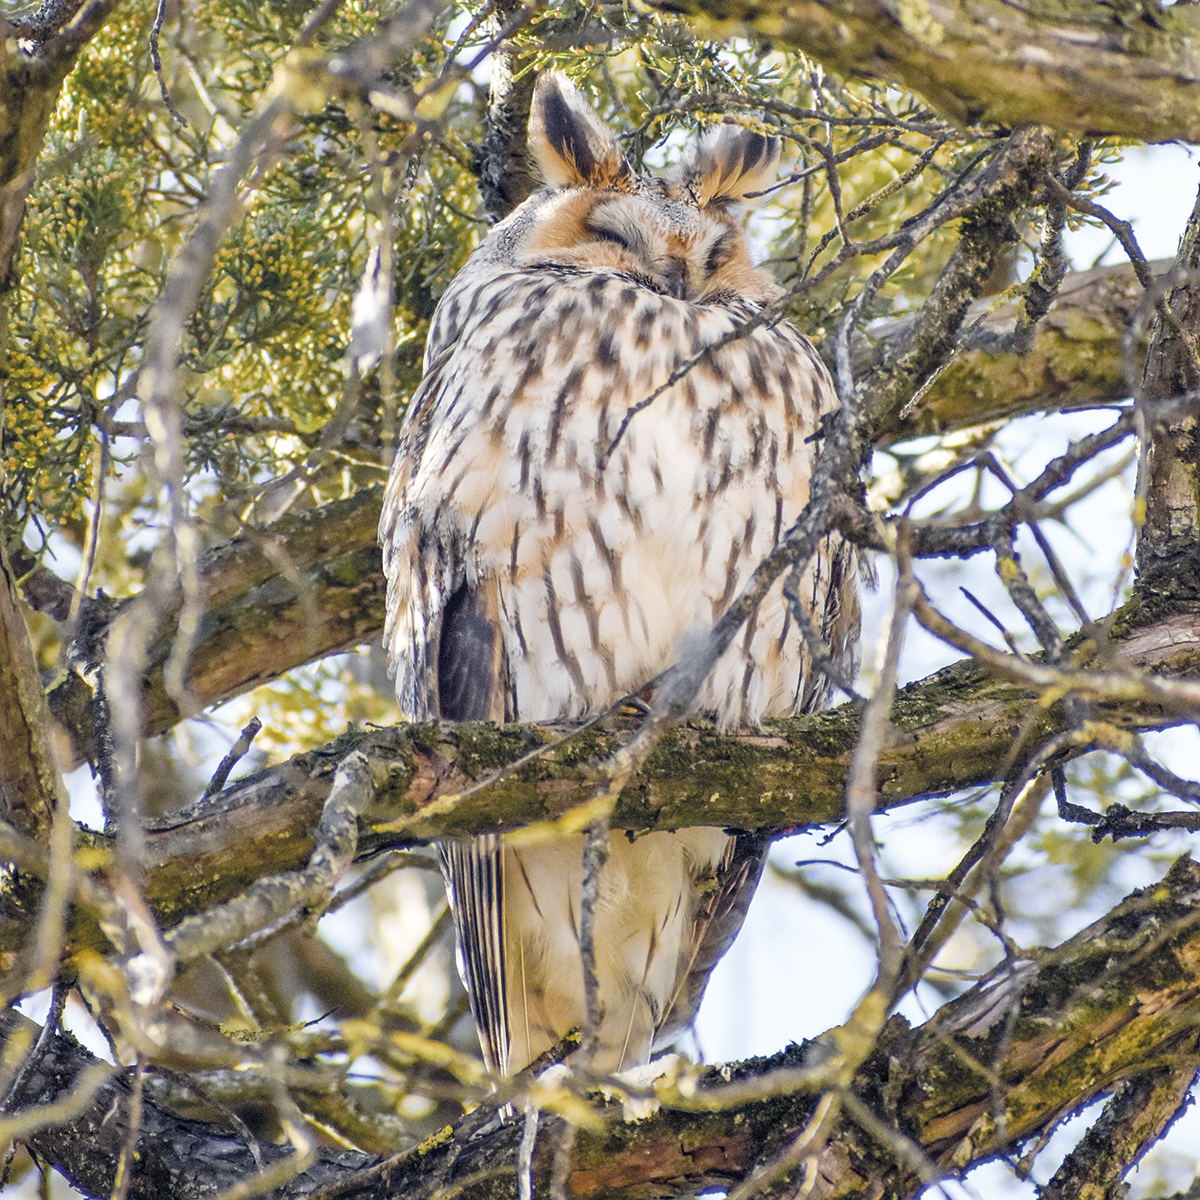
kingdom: Animalia
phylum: Chordata
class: Aves
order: Strigiformes
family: Strigidae
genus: Asio
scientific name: Asio otus
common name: Long-eared owl
